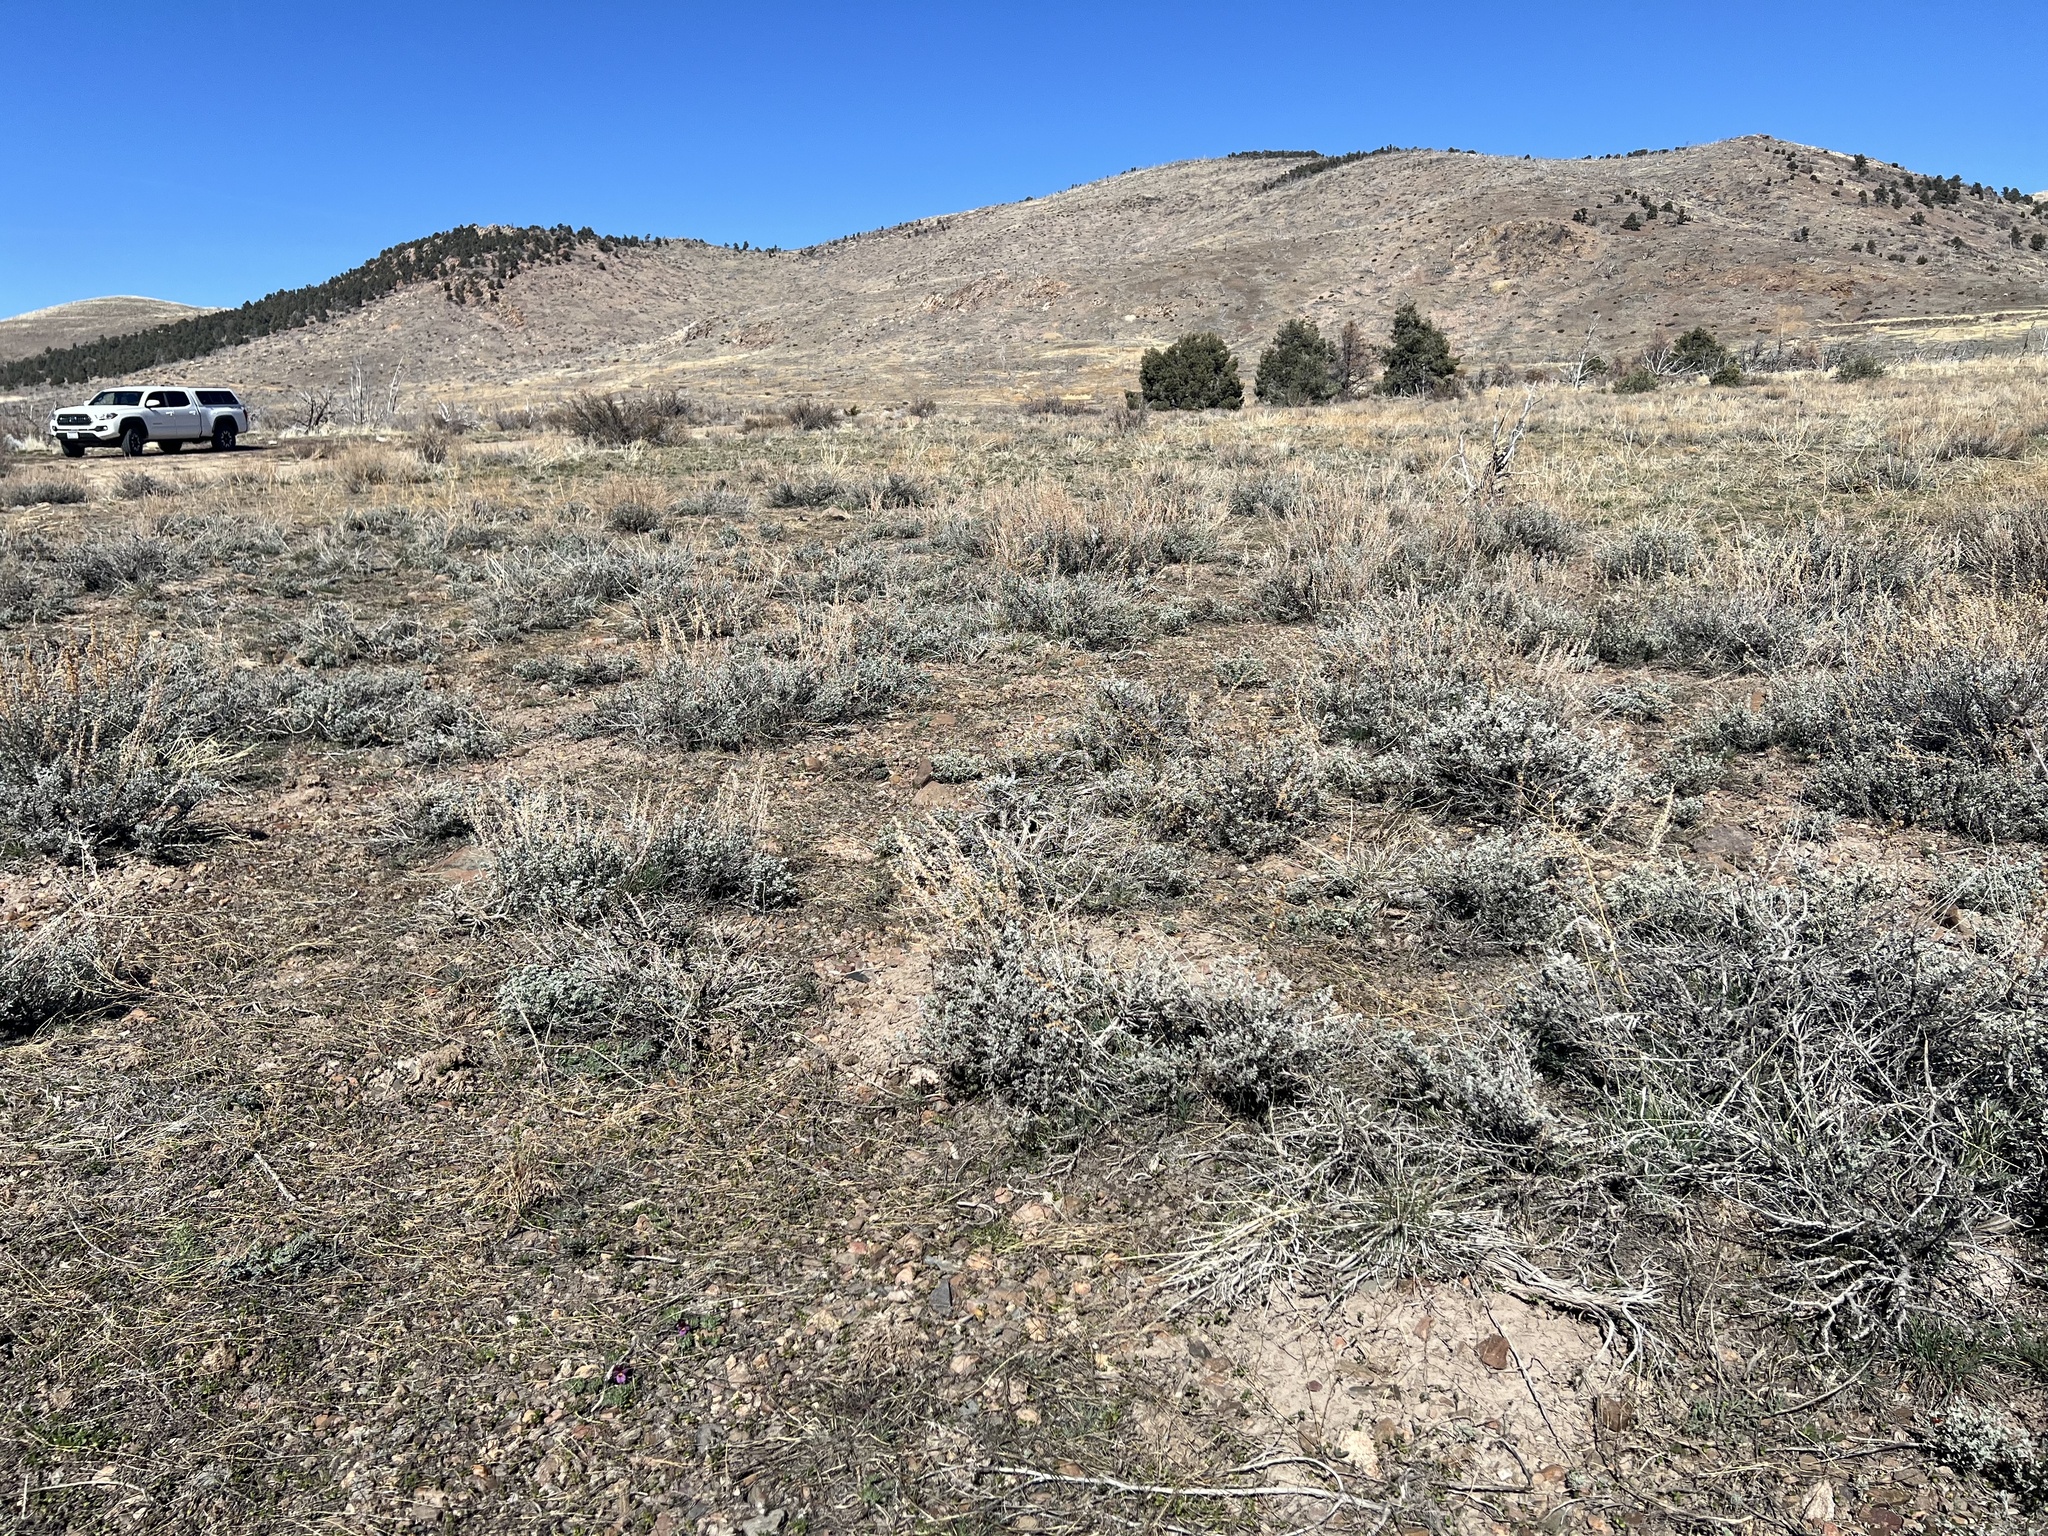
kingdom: Plantae
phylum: Tracheophyta
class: Magnoliopsida
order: Asterales
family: Asteraceae
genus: Artemisia
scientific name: Artemisia arbuscula
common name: Sagebrush
